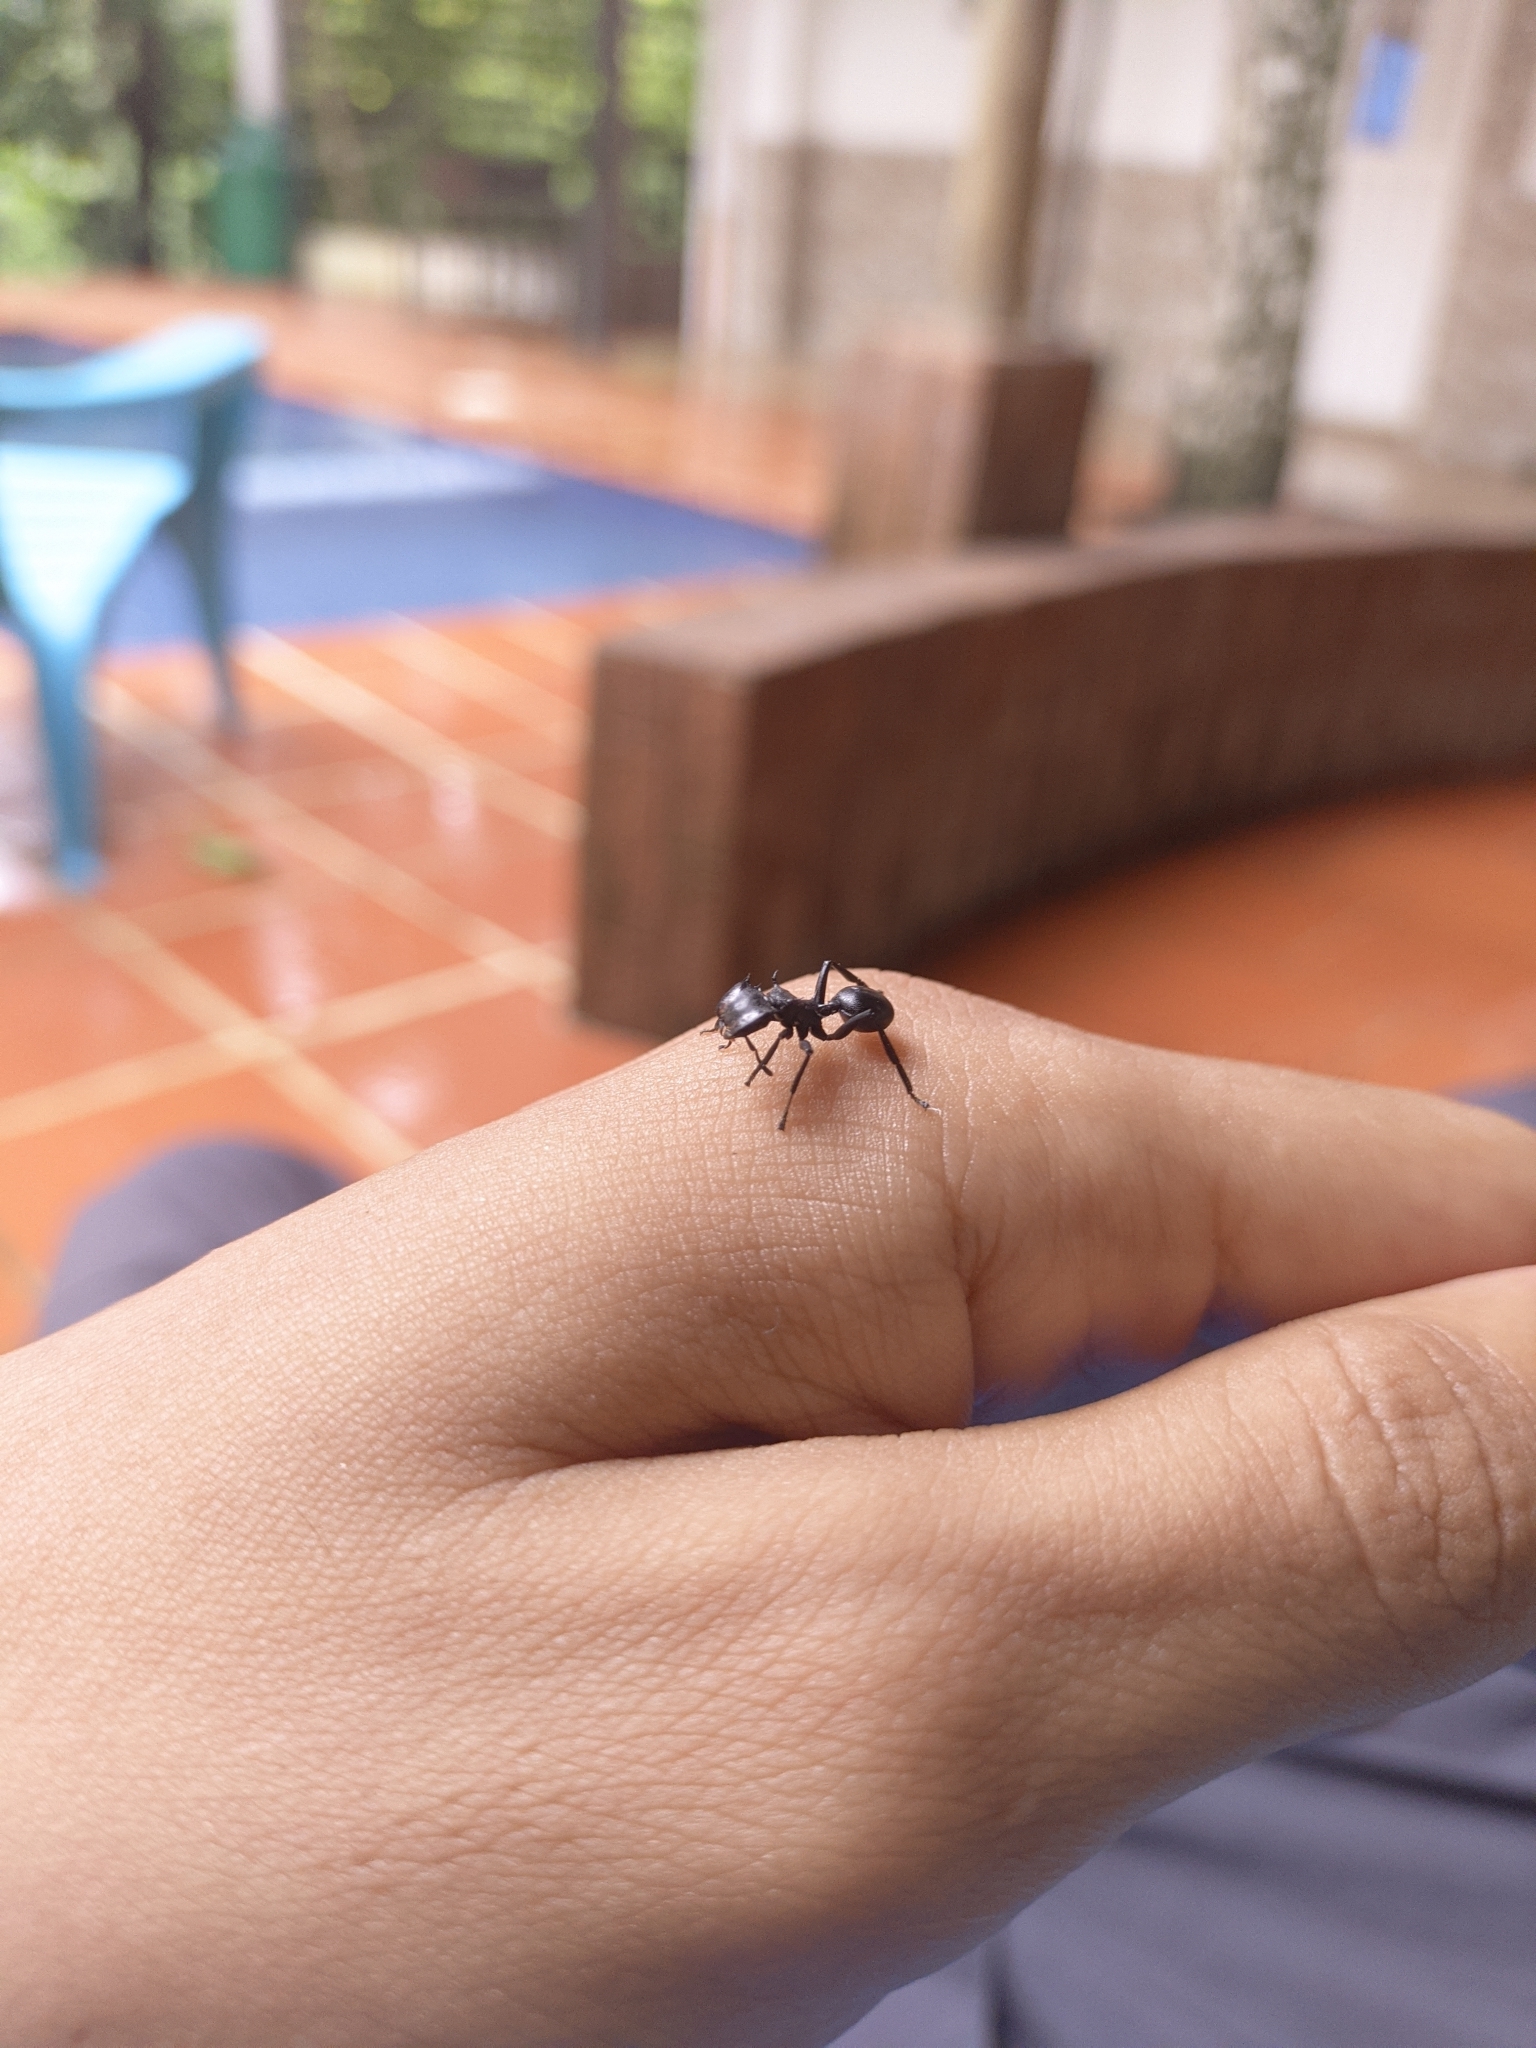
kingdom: Animalia
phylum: Arthropoda
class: Insecta
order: Hymenoptera
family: Formicidae
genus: Cephalotes
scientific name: Cephalotes atratus
